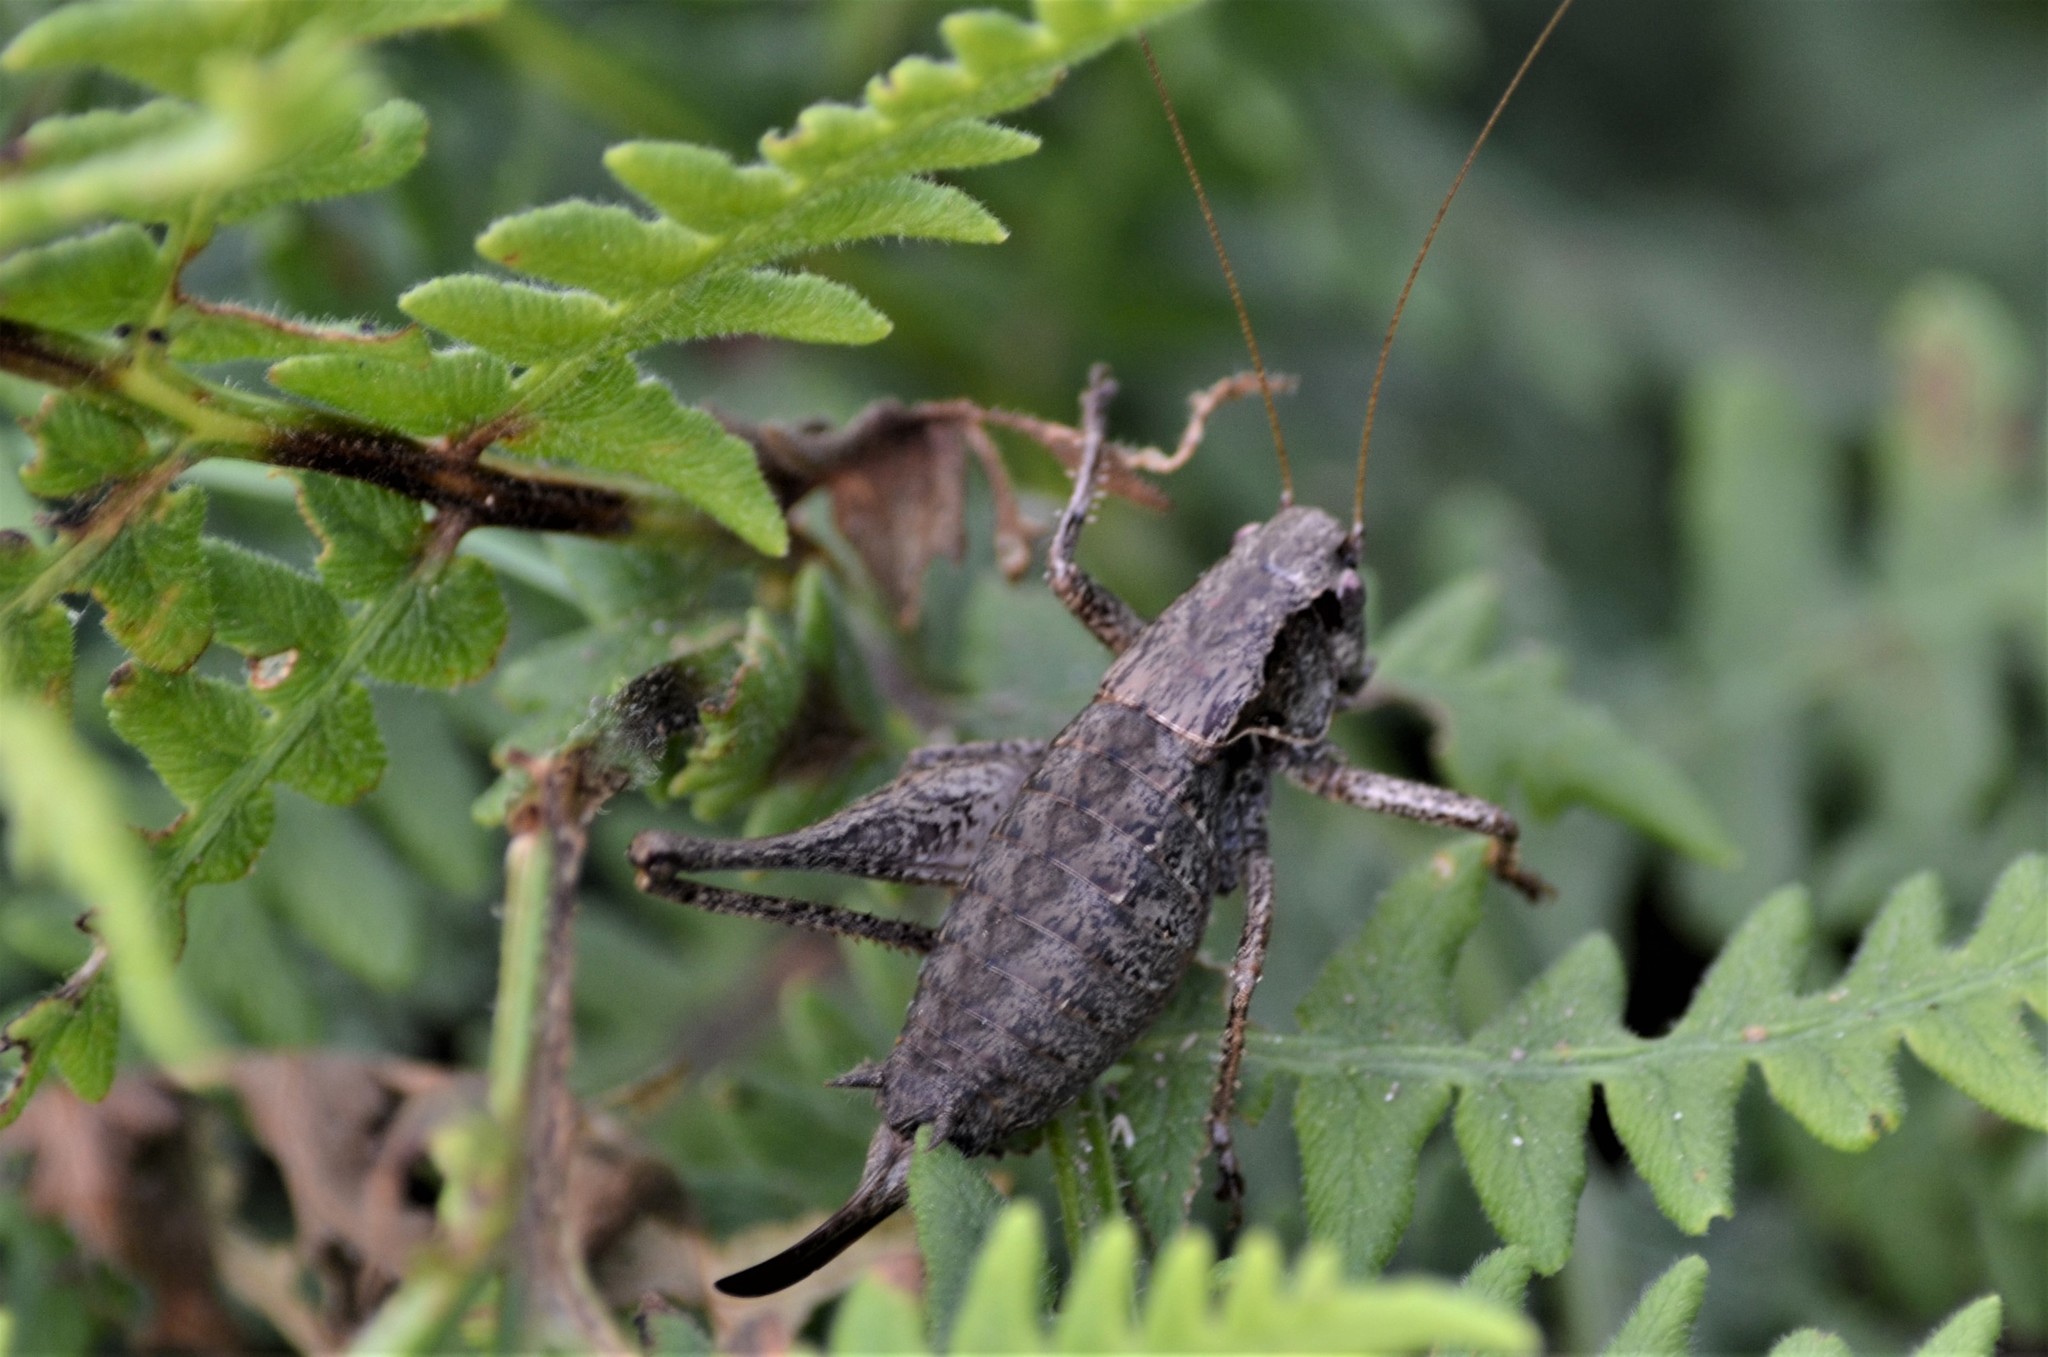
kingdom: Animalia
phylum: Arthropoda
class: Insecta
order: Orthoptera
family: Tettigoniidae
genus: Pholidoptera
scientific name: Pholidoptera griseoaptera
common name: Dark bush-cricket
